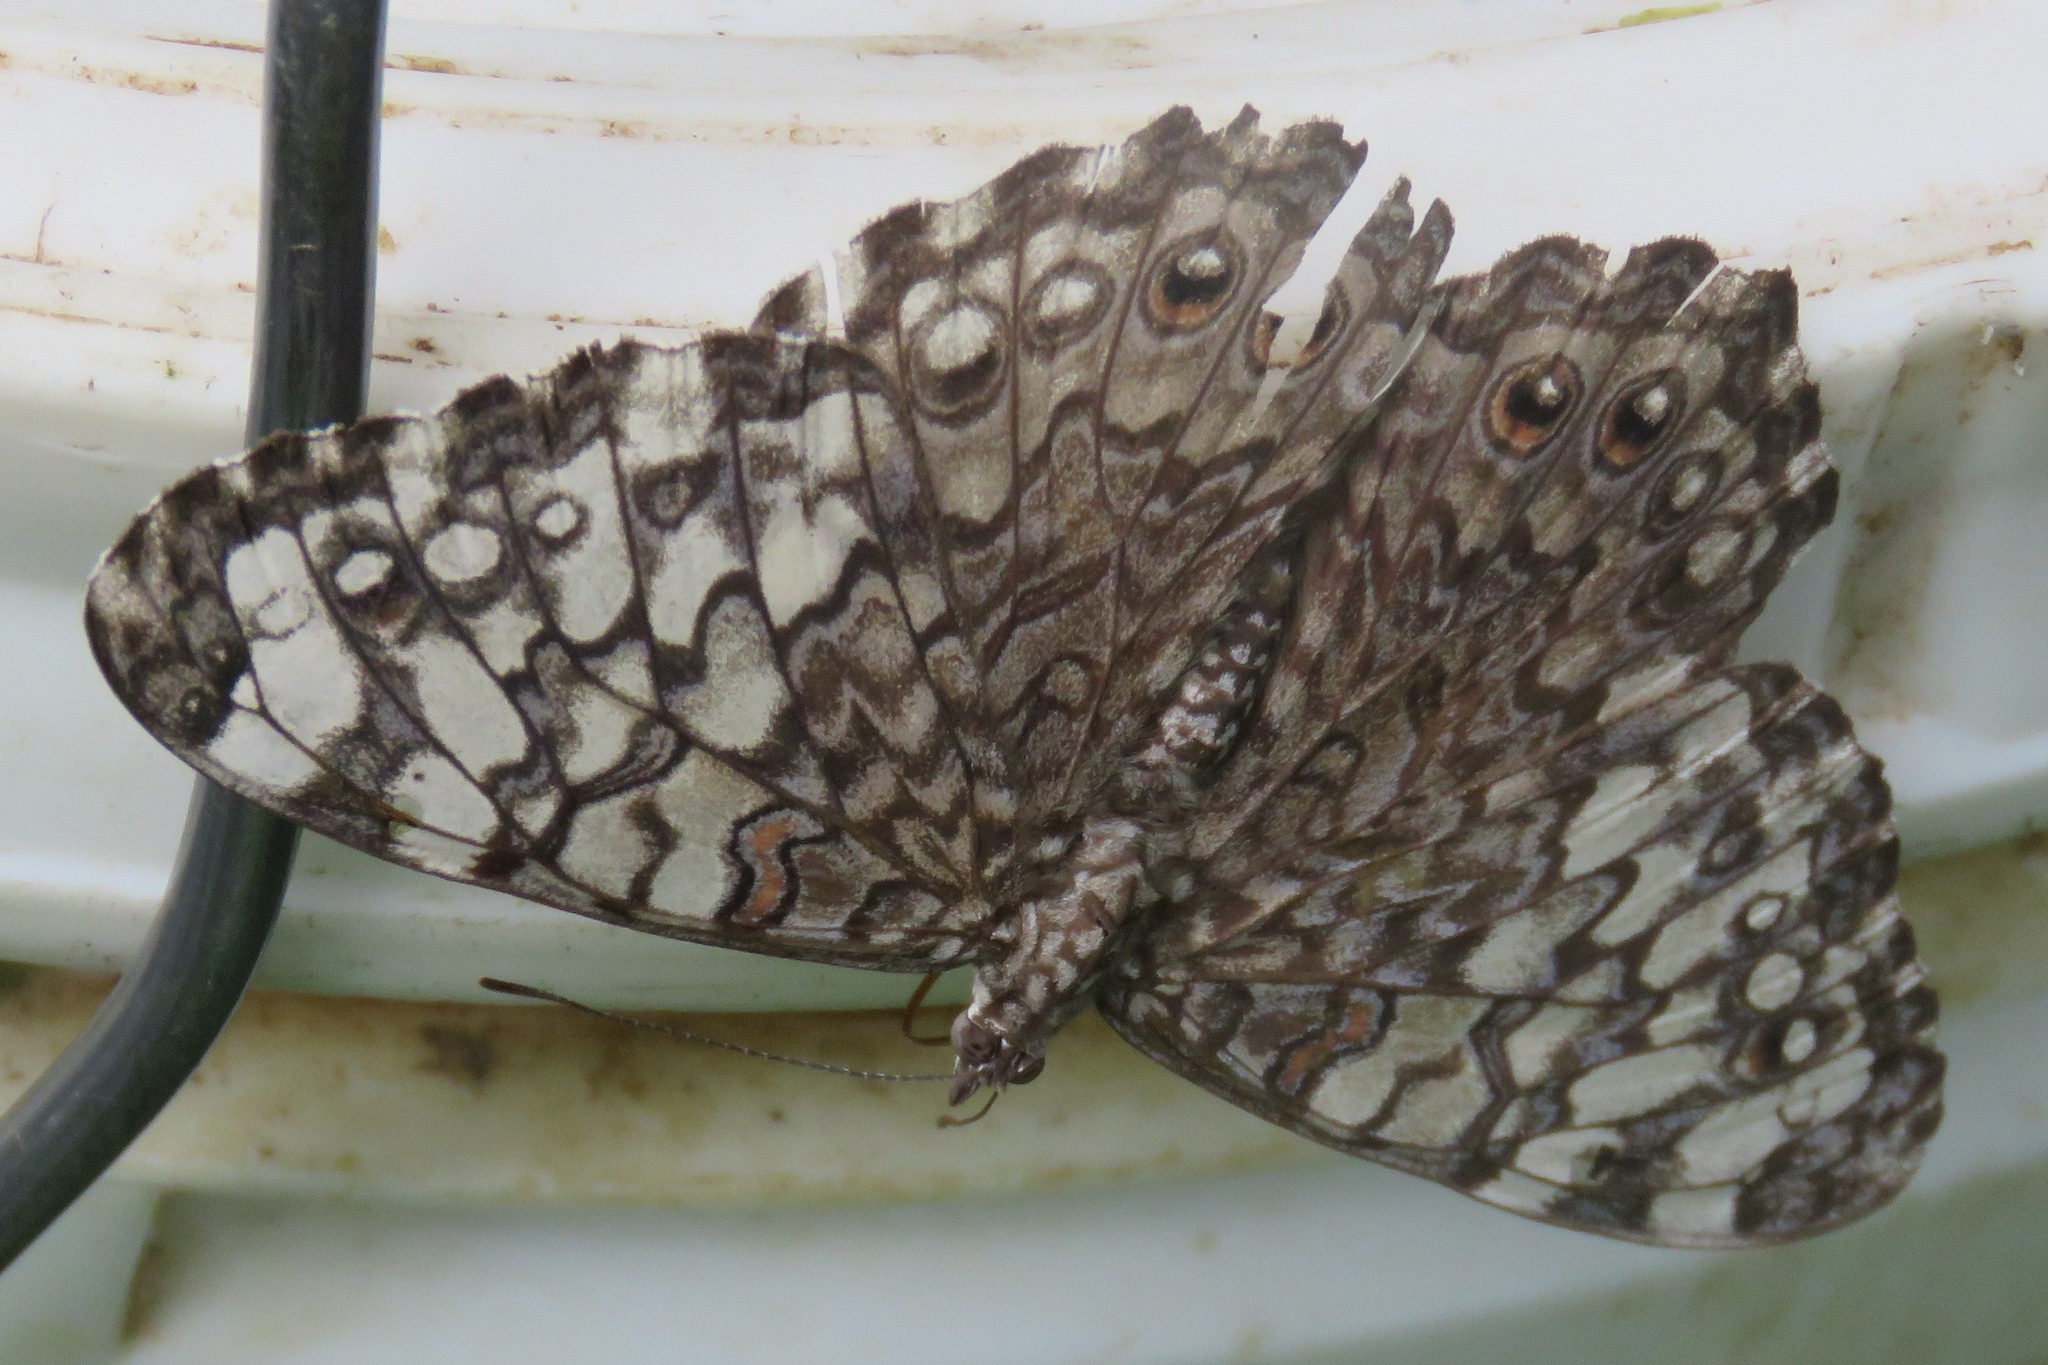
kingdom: Animalia
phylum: Arthropoda
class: Insecta
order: Lepidoptera
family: Nymphalidae
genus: Hamadryas
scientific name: Hamadryas februa
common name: Gray cracker
